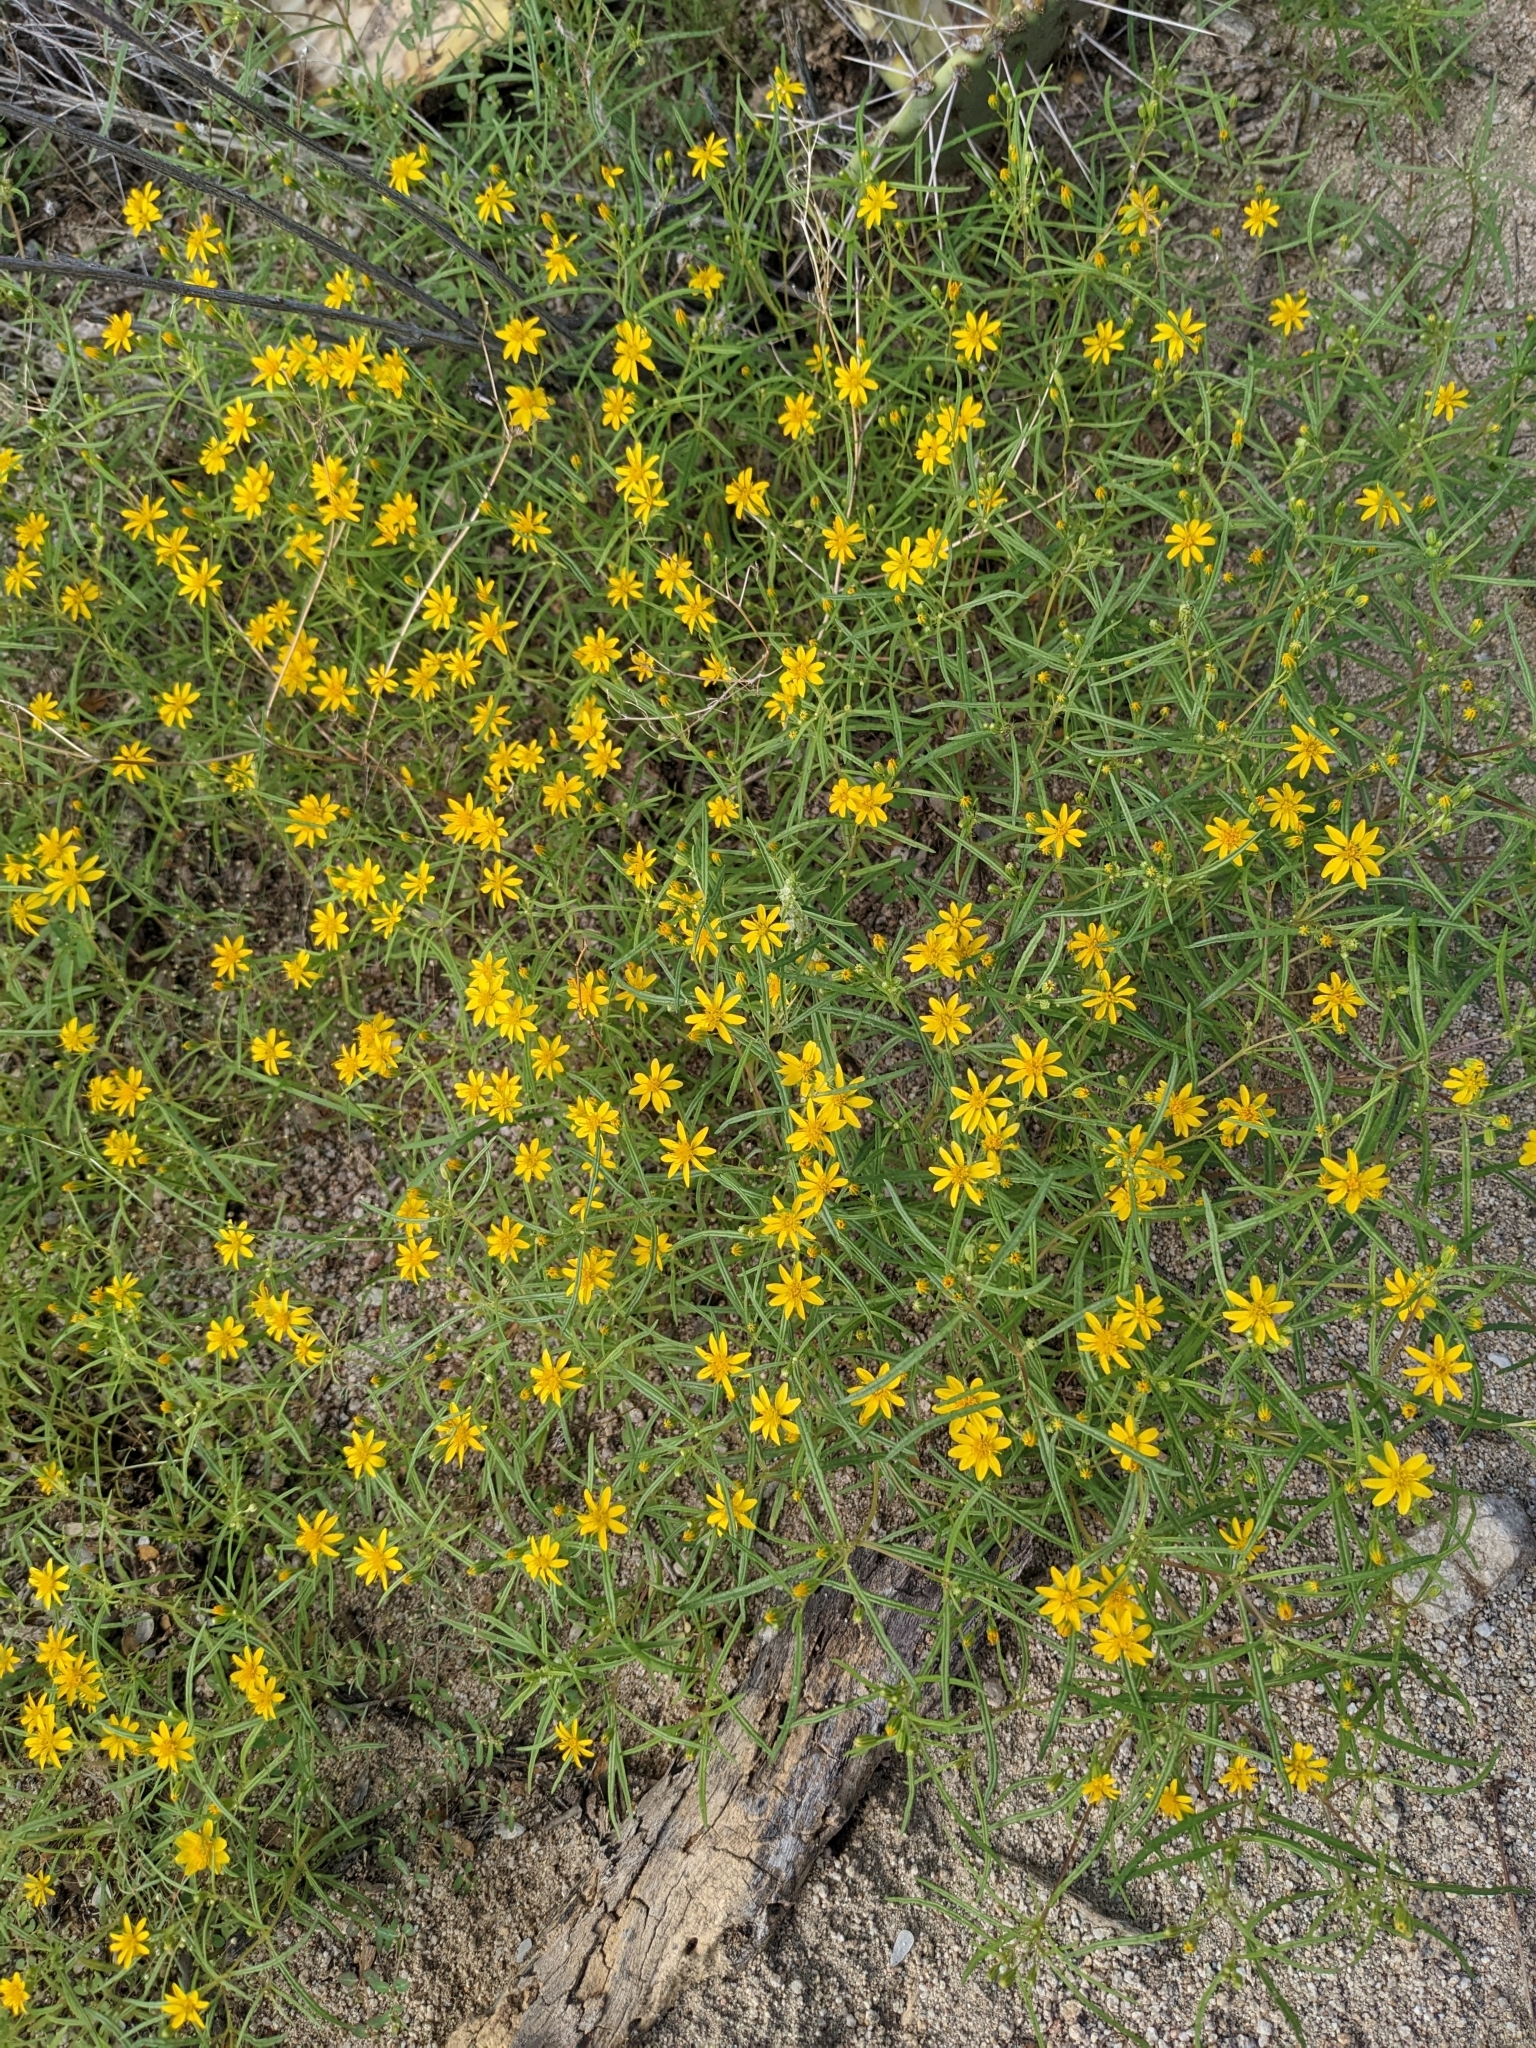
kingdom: Plantae
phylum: Tracheophyta
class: Magnoliopsida
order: Asterales
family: Asteraceae
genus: Pectis
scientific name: Pectis papposa
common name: Many-bristle chinchweed
